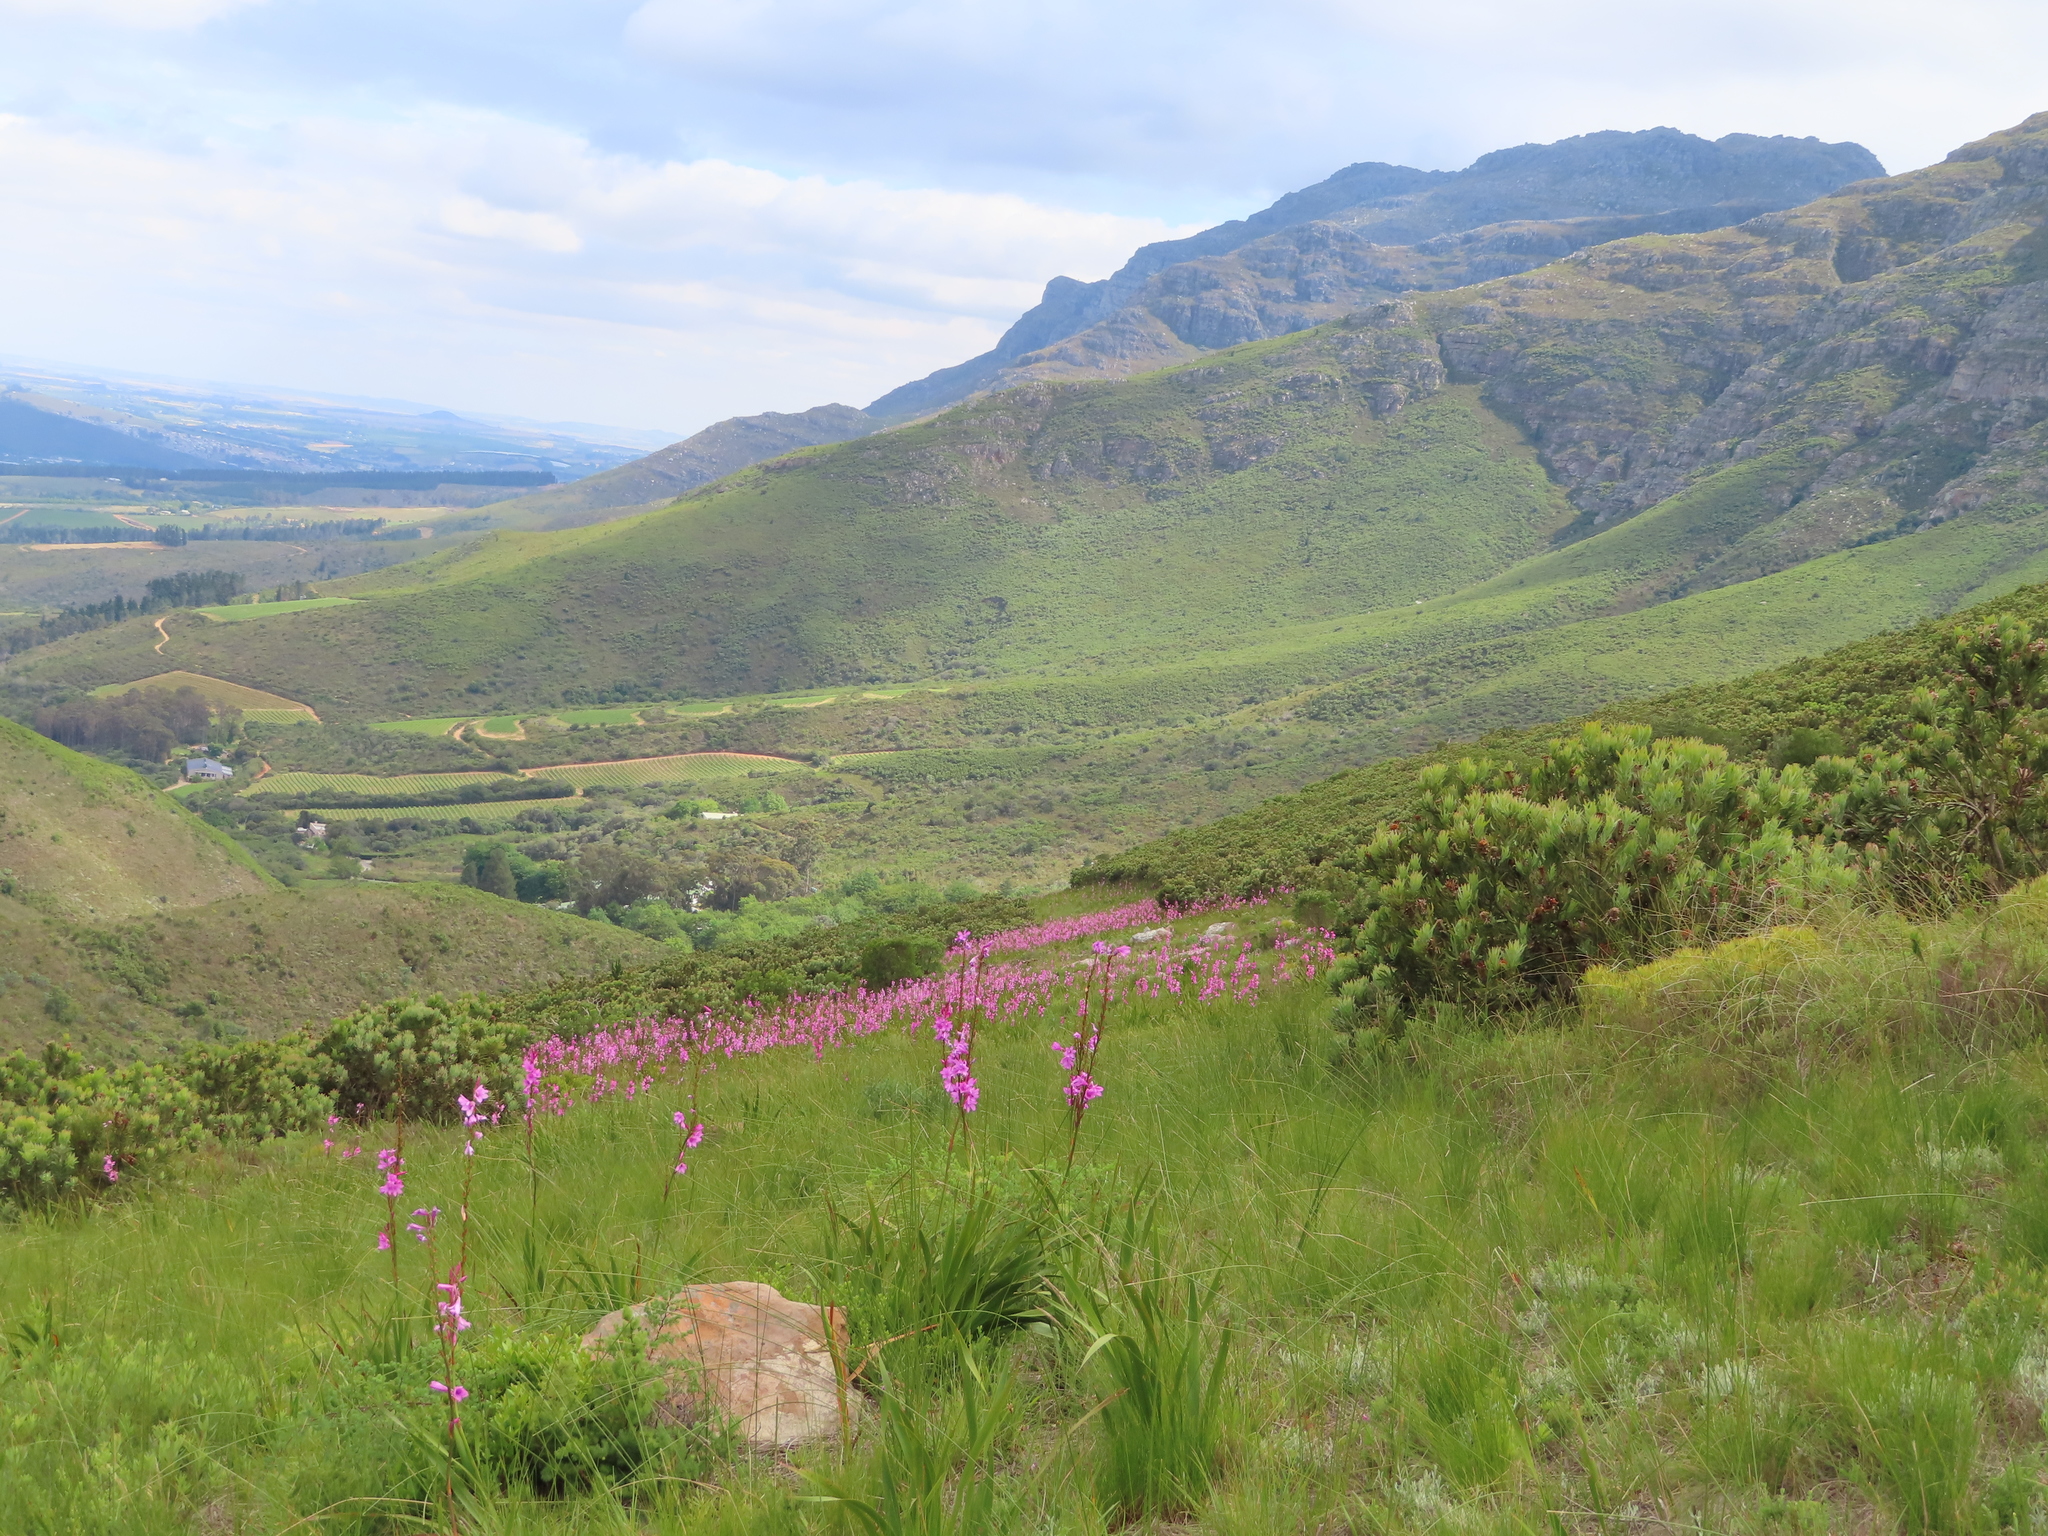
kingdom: Plantae
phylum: Tracheophyta
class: Liliopsida
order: Asparagales
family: Iridaceae
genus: Watsonia
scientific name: Watsonia borbonica
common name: Bugle-lily
